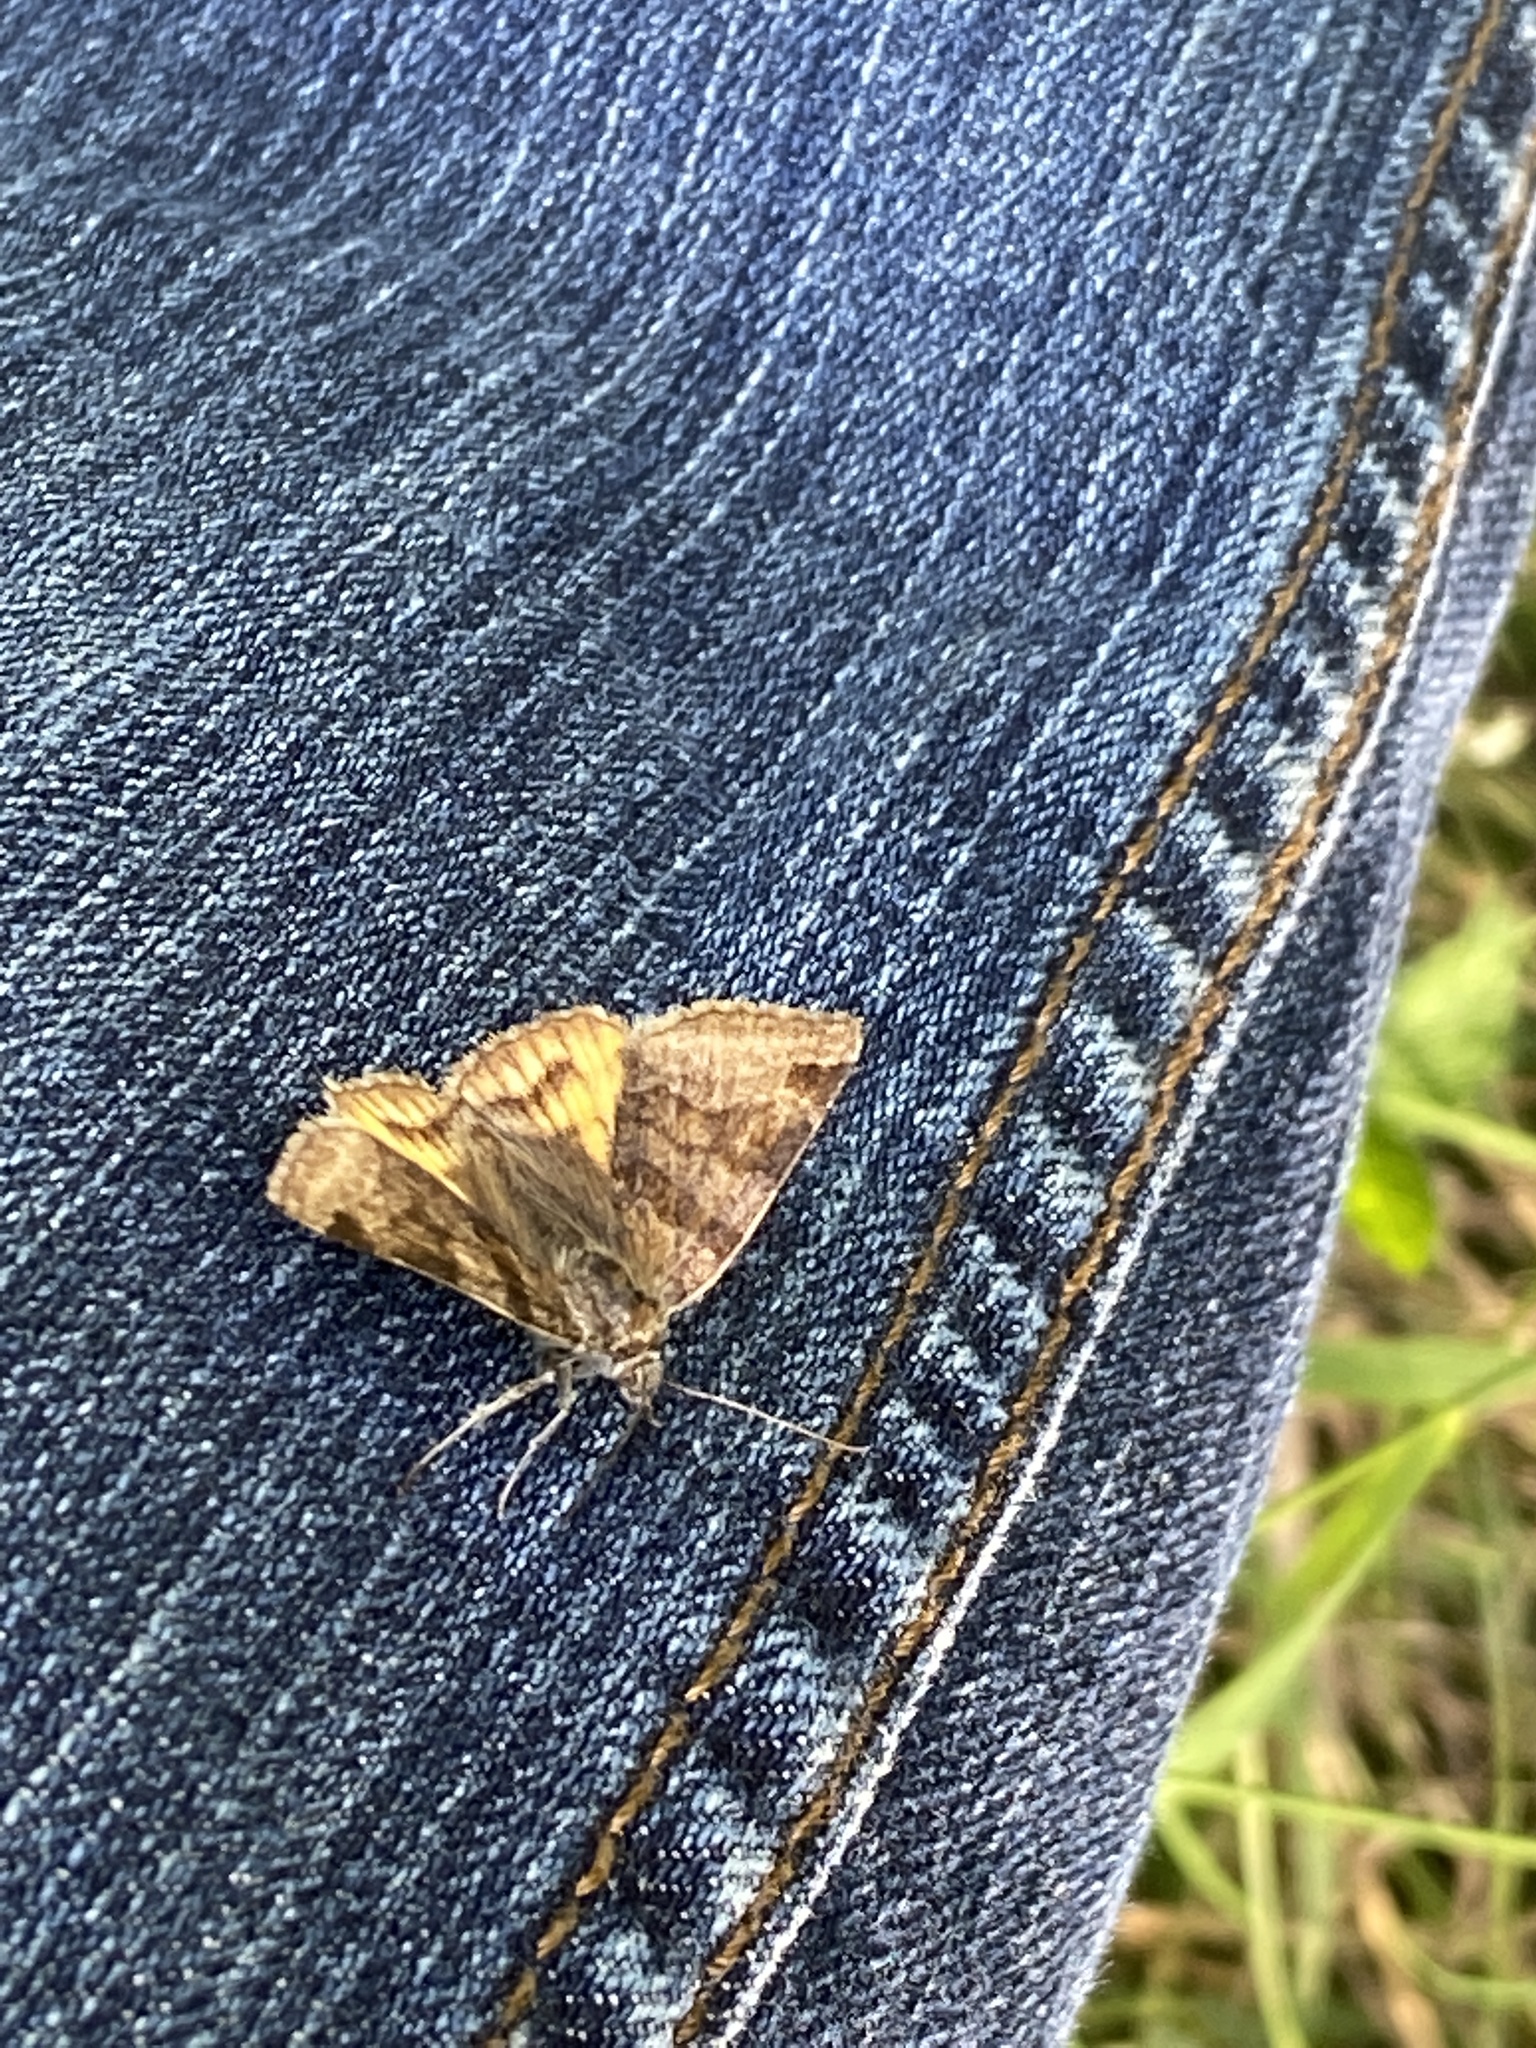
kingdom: Animalia
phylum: Arthropoda
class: Insecta
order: Lepidoptera
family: Erebidae
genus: Euclidia
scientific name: Euclidia glyphica
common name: Burnet companion
